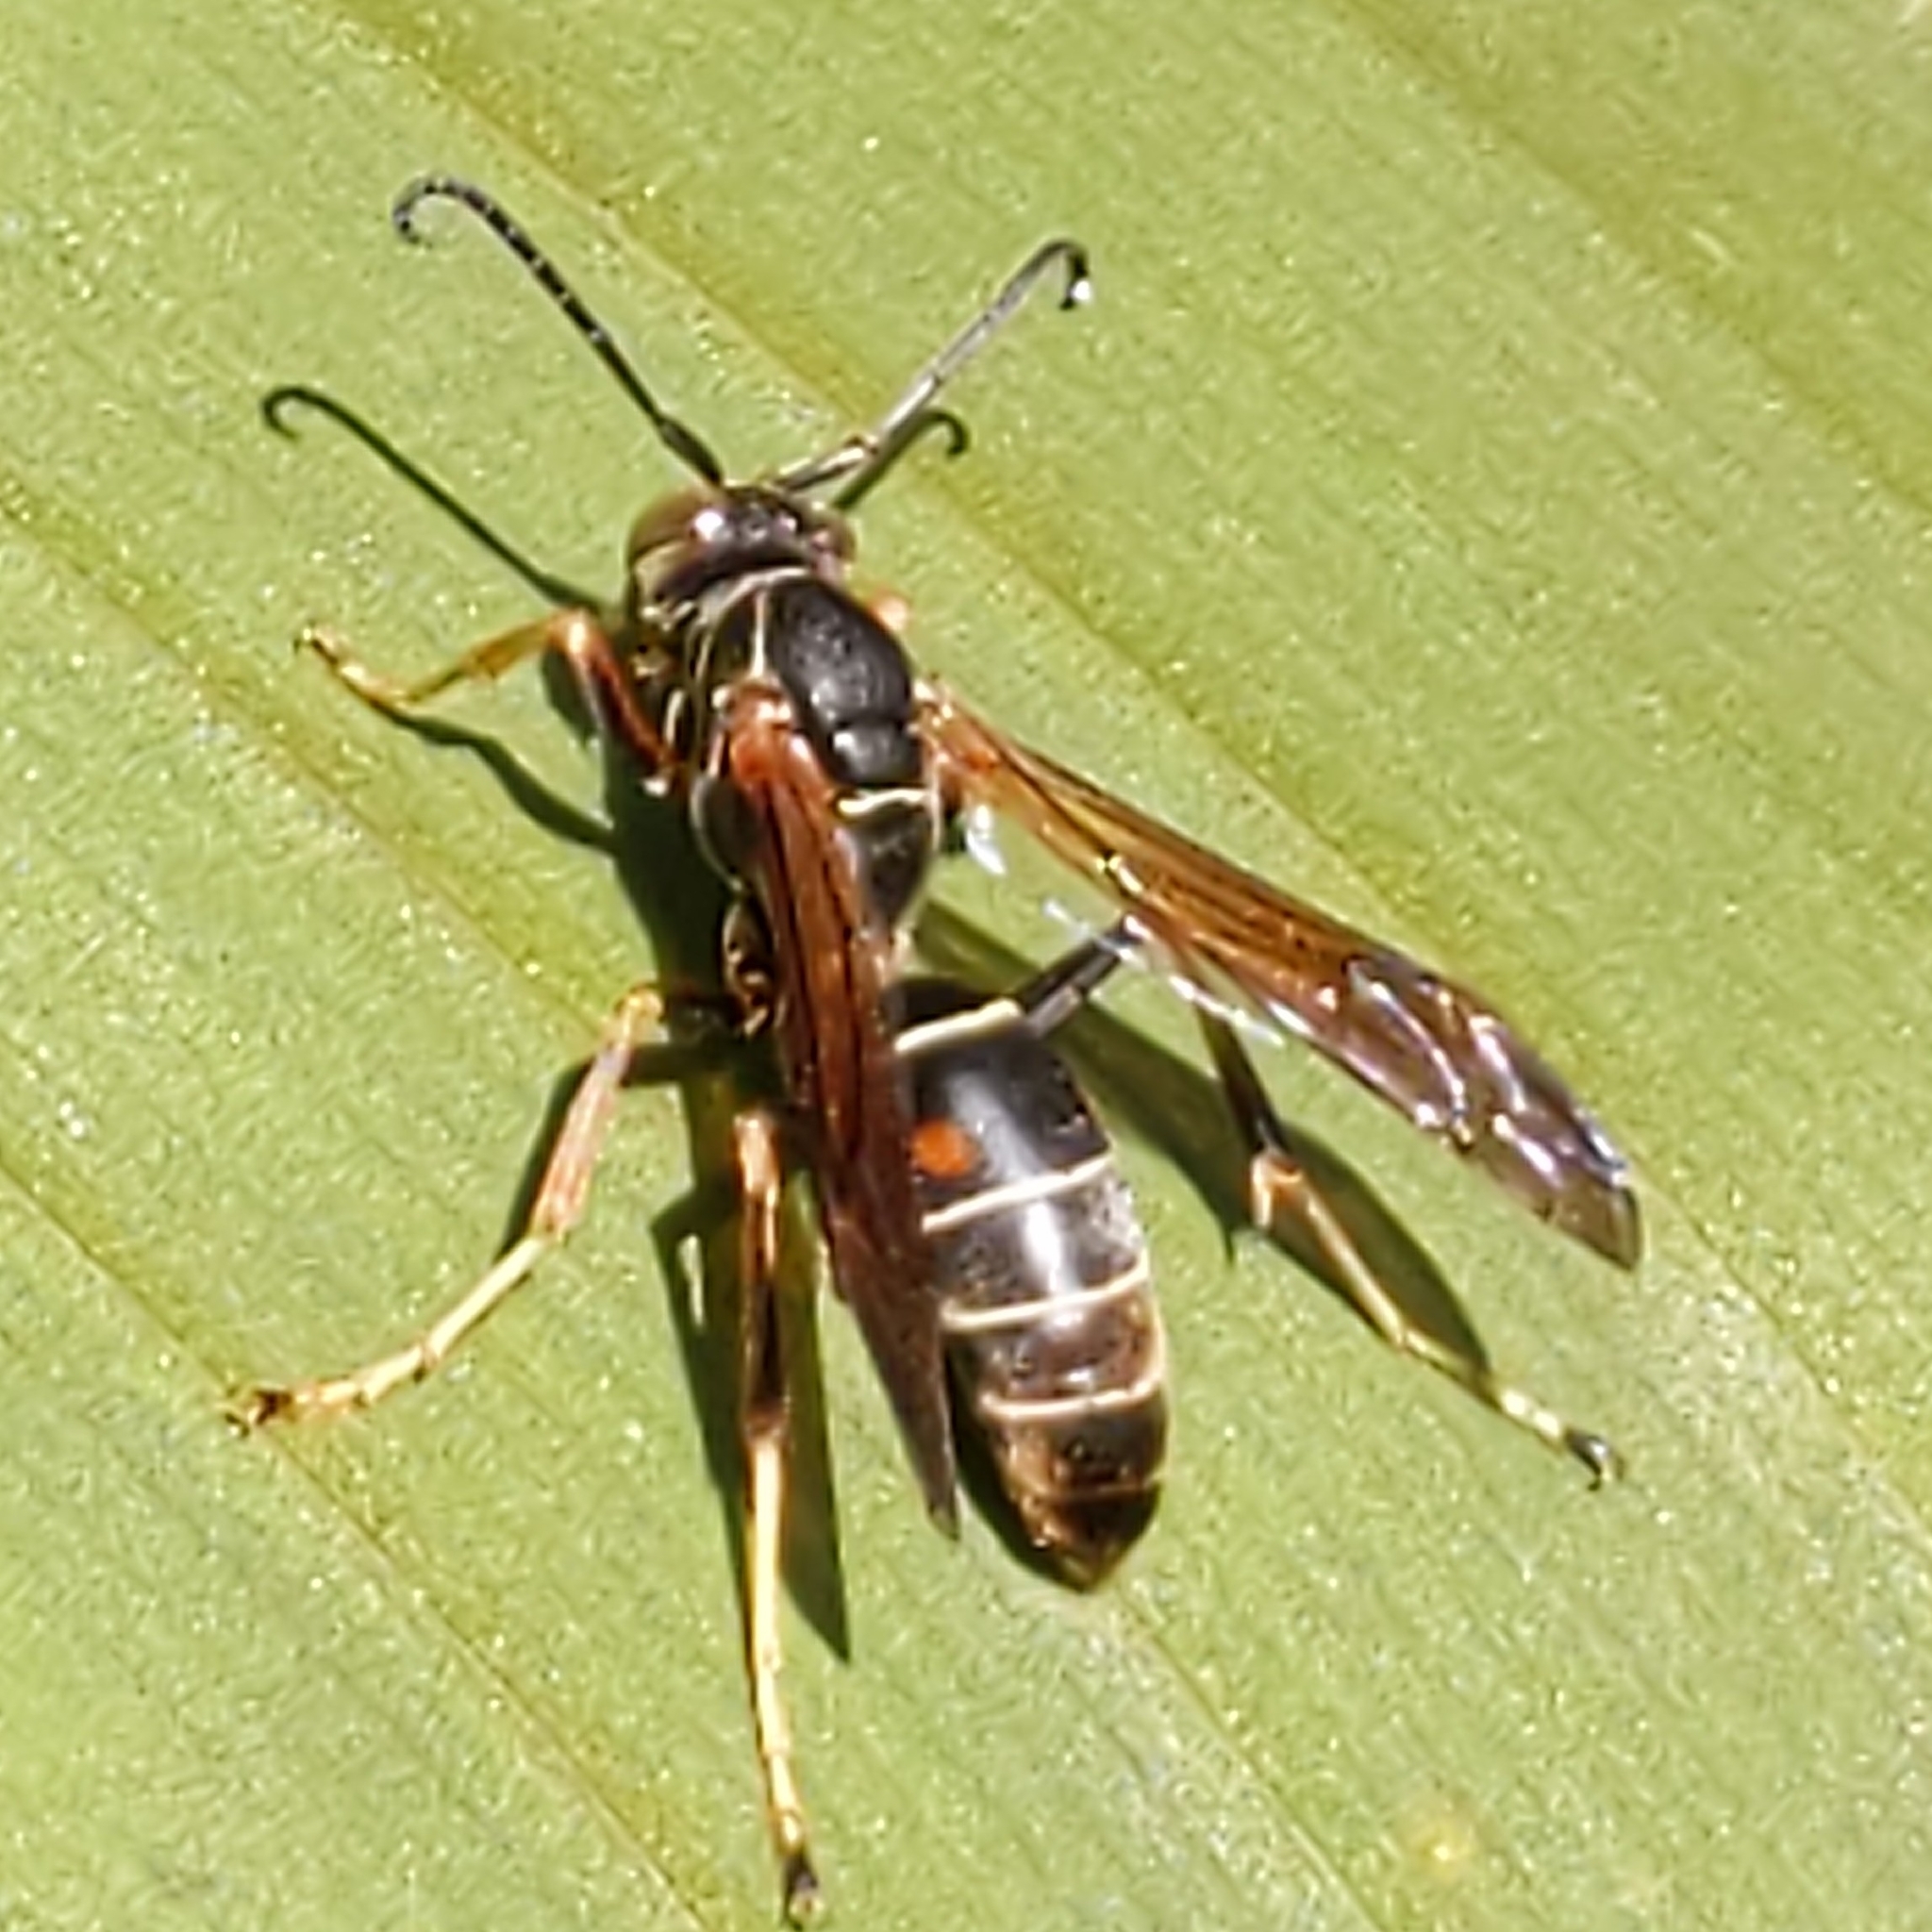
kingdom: Animalia
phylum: Arthropoda
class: Insecta
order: Hymenoptera
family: Eumenidae
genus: Polistes
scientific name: Polistes fuscatus
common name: Dark paper wasp
